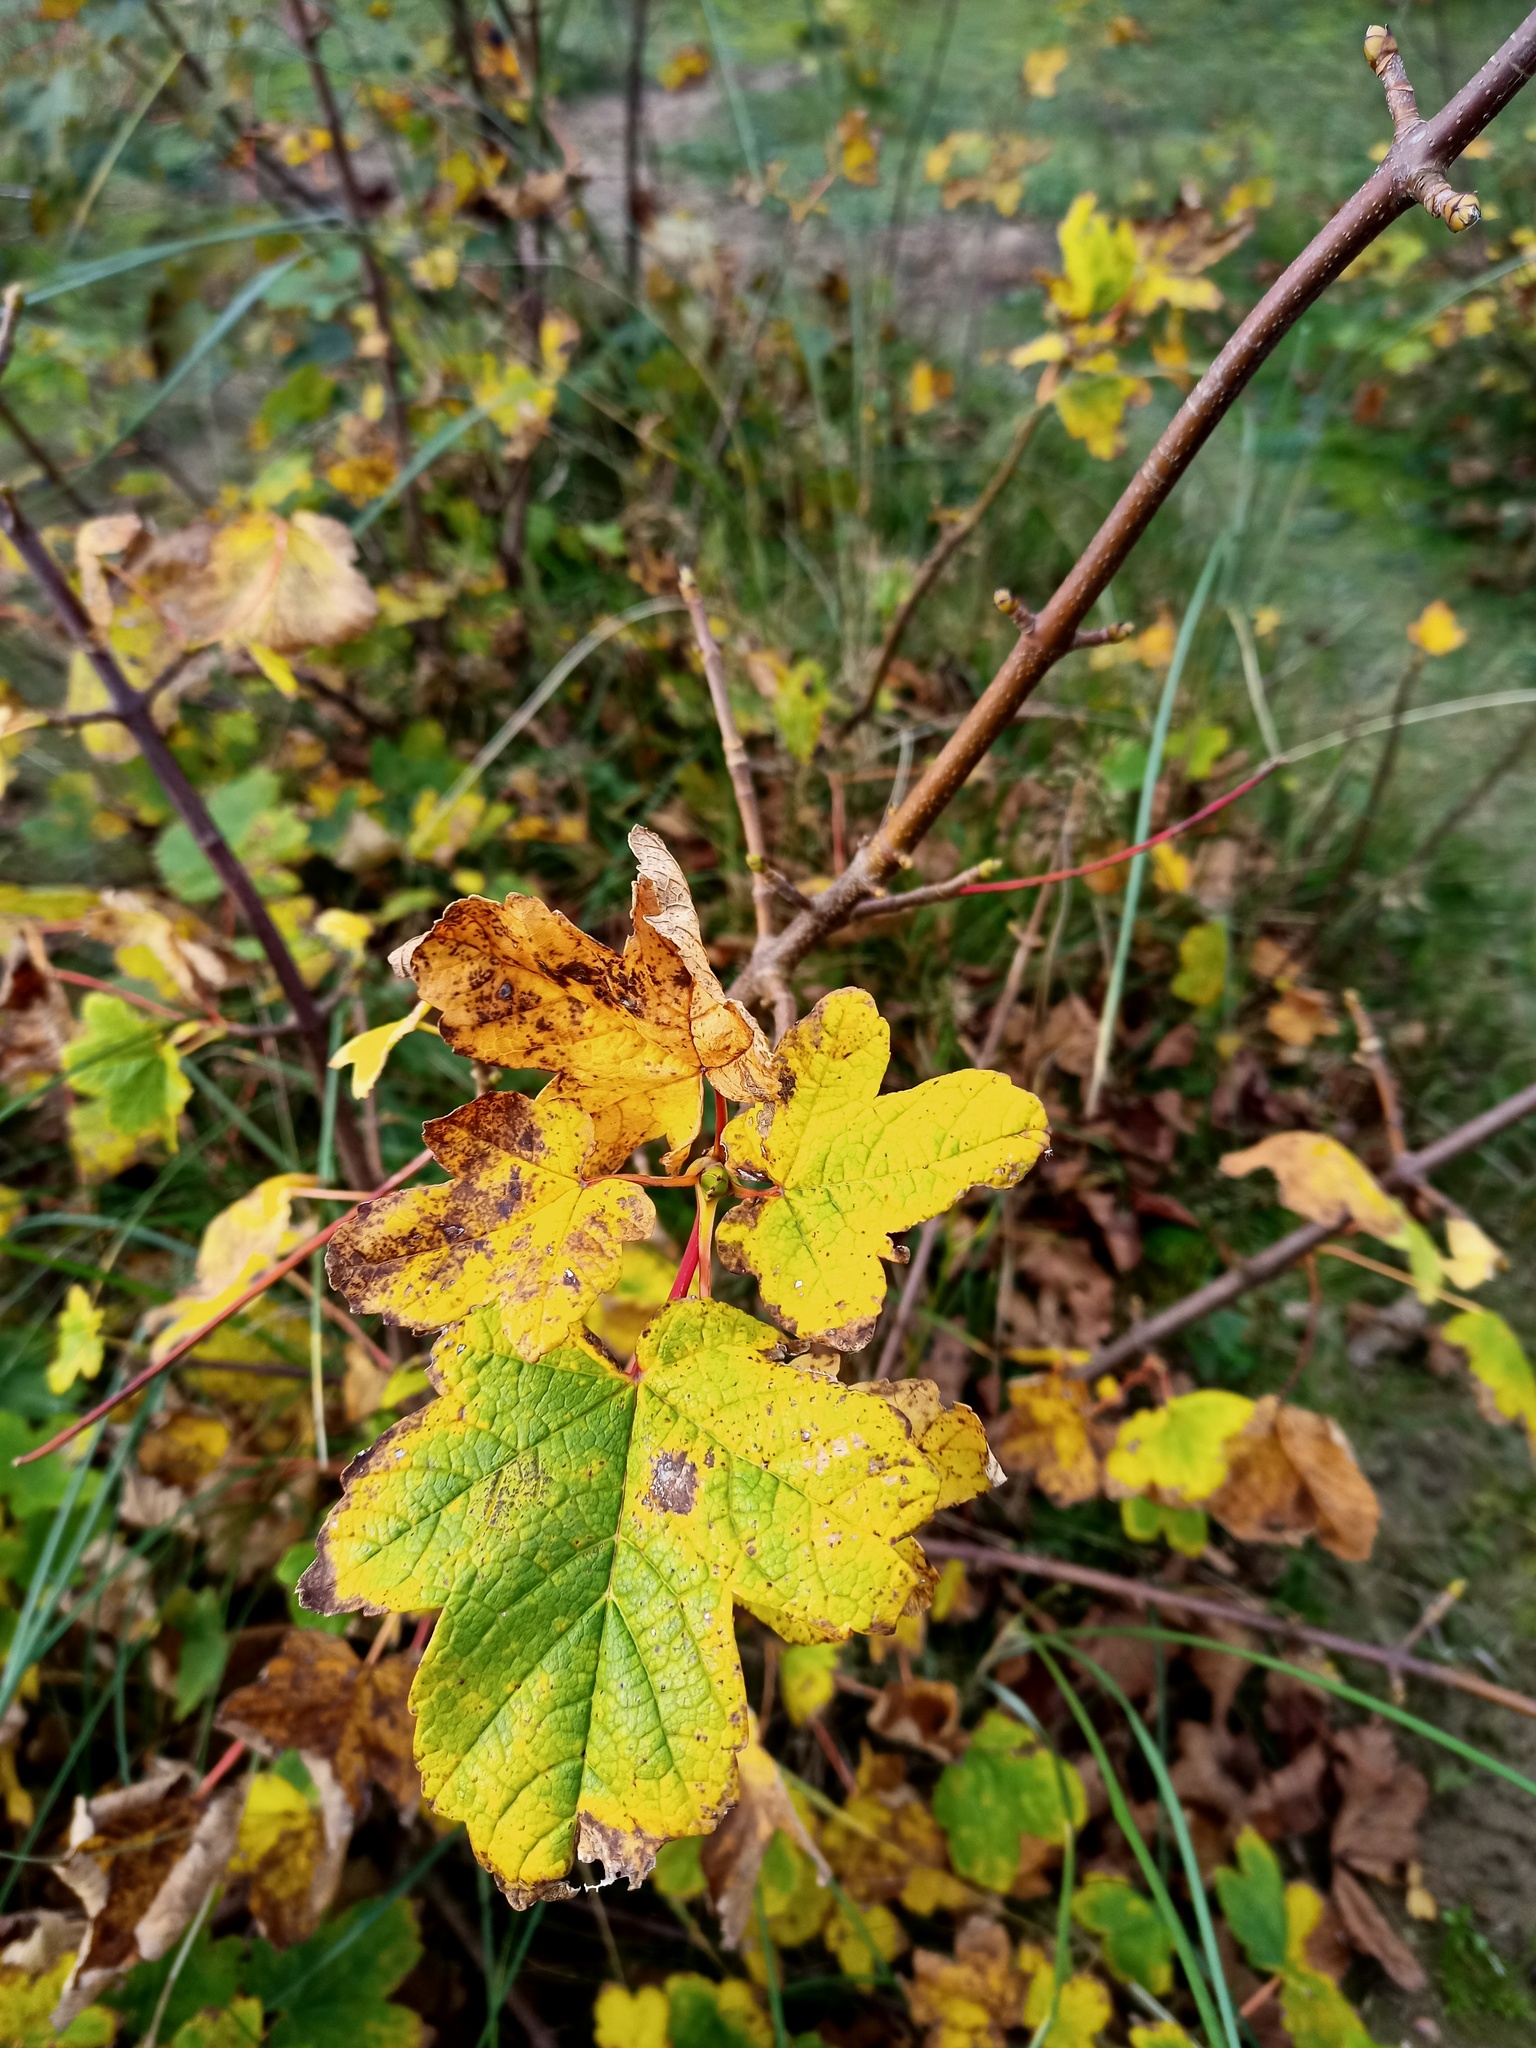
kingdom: Plantae
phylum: Tracheophyta
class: Magnoliopsida
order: Sapindales
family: Sapindaceae
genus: Acer
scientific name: Acer pseudoplatanus
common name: Sycamore
